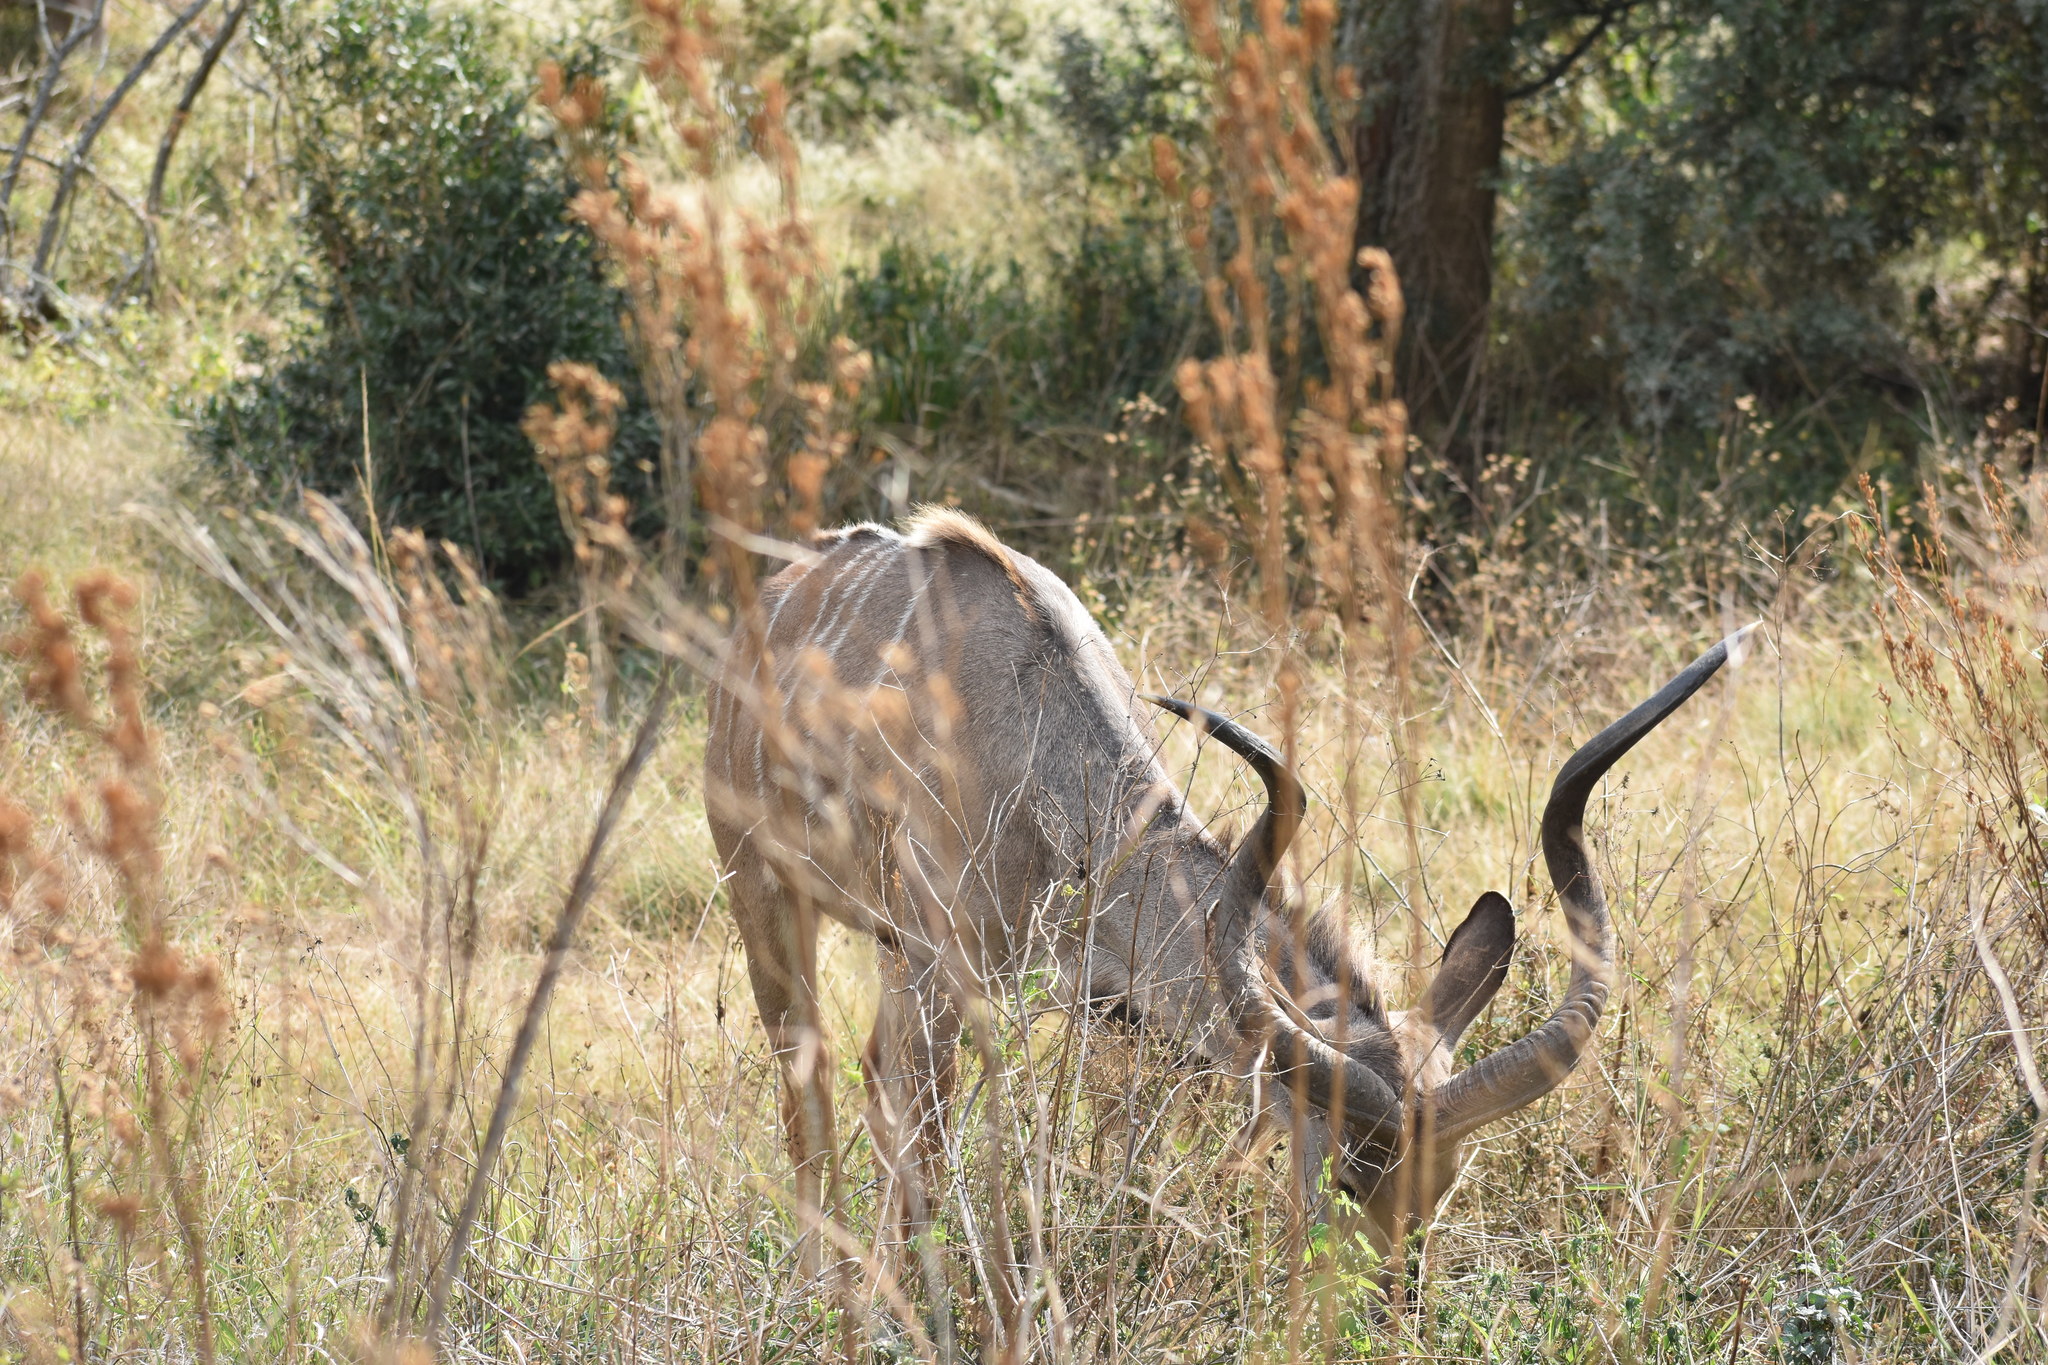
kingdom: Animalia
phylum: Chordata
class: Mammalia
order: Artiodactyla
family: Bovidae
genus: Tragelaphus
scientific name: Tragelaphus strepsiceros
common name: Greater kudu
